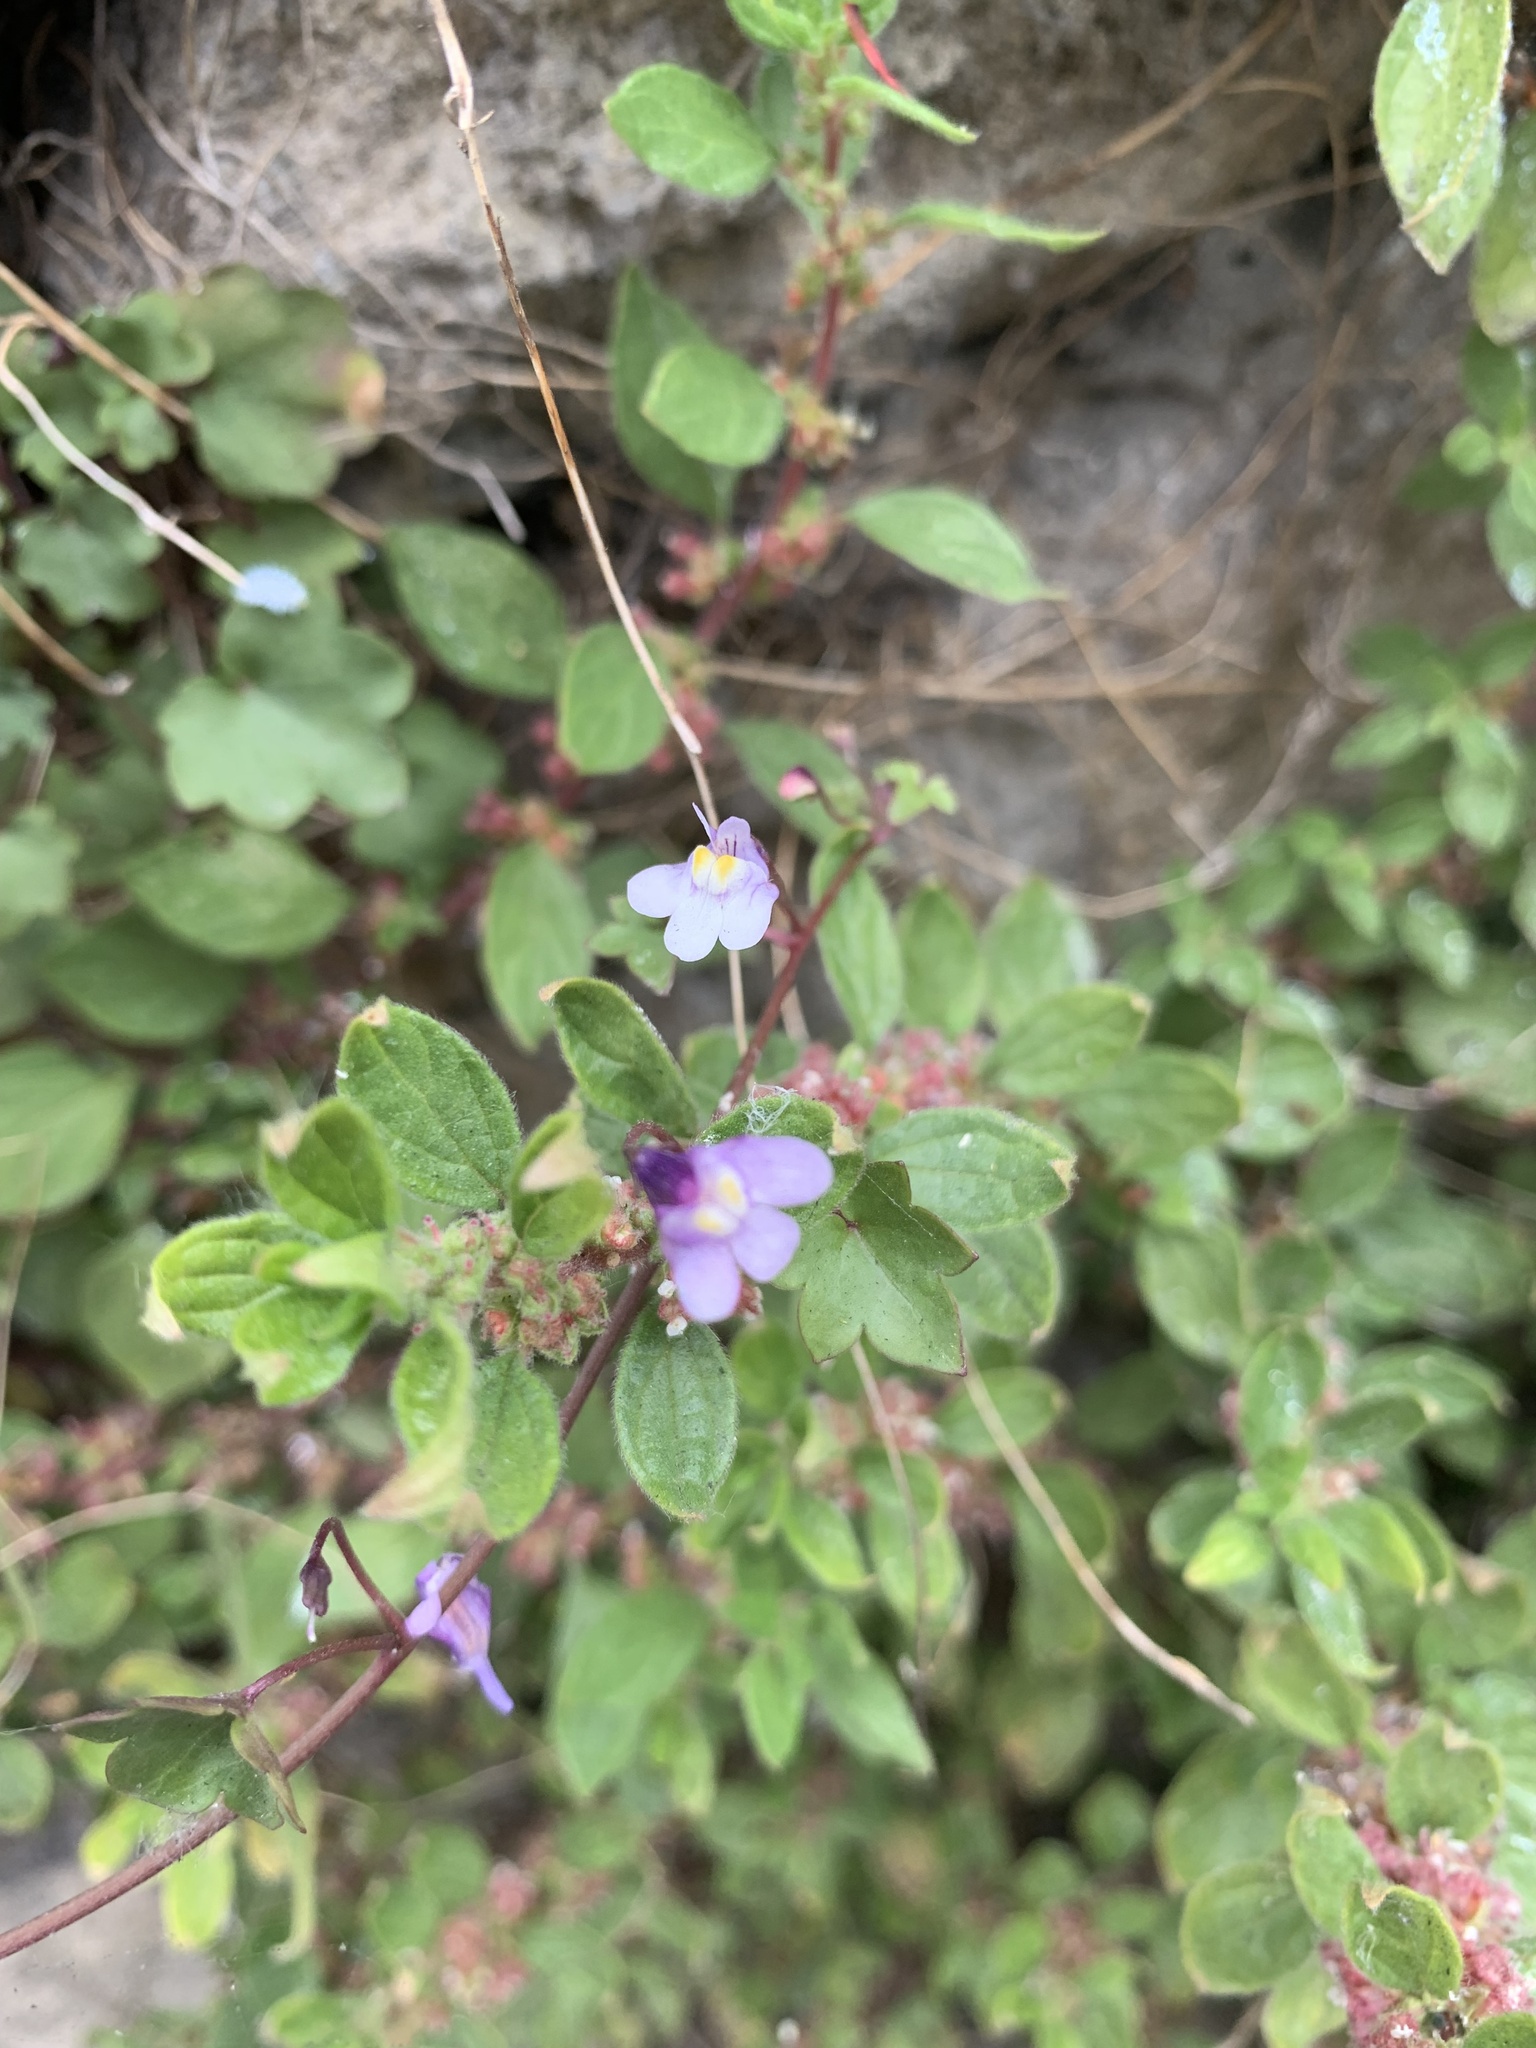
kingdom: Plantae
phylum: Tracheophyta
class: Magnoliopsida
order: Lamiales
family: Plantaginaceae
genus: Cymbalaria
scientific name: Cymbalaria muralis
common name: Ivy-leaved toadflax
